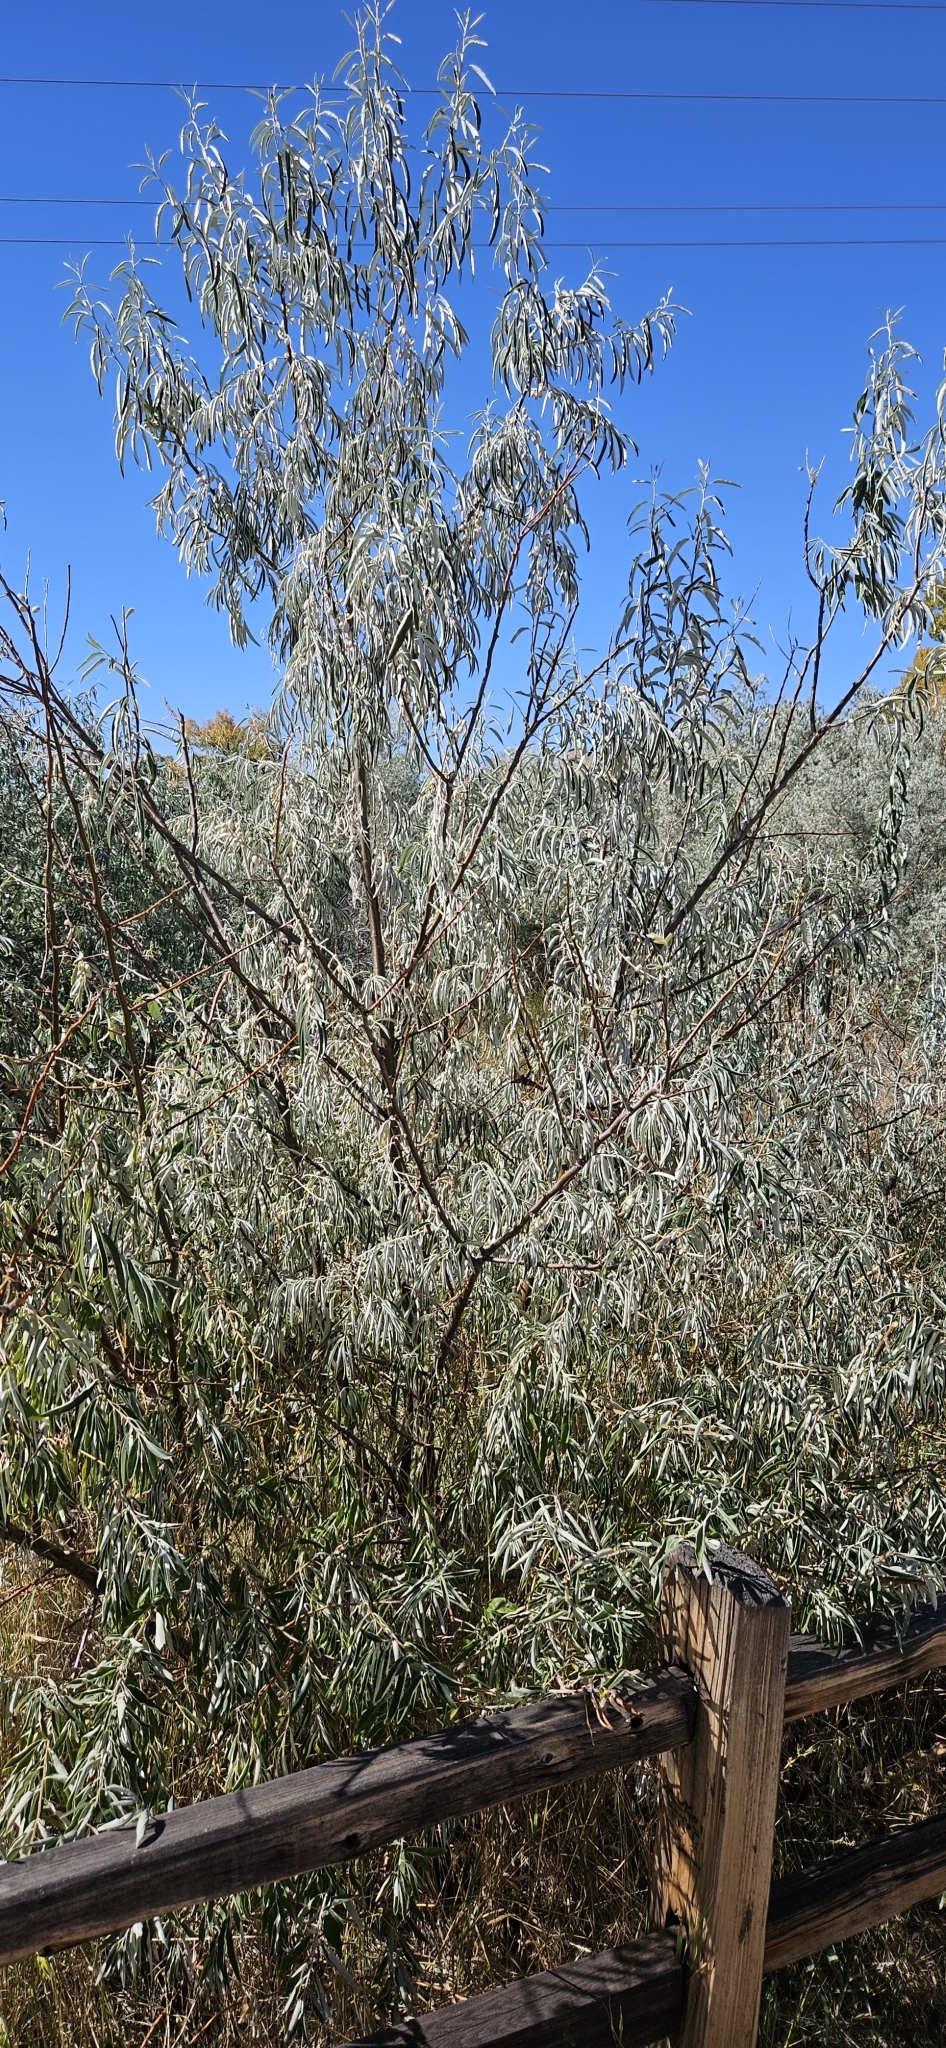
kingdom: Plantae
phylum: Tracheophyta
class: Magnoliopsida
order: Rosales
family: Elaeagnaceae
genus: Elaeagnus
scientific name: Elaeagnus angustifolia
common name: Russian olive
